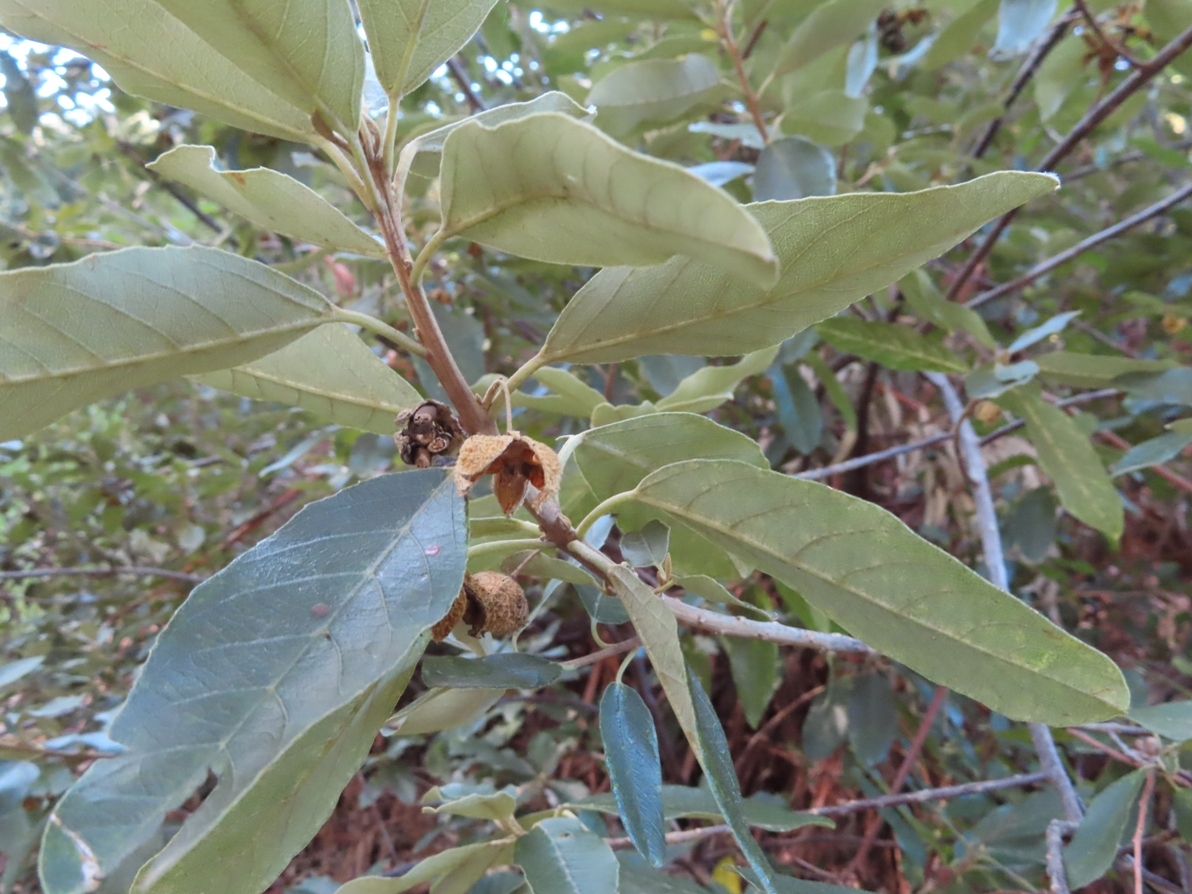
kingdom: Plantae
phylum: Tracheophyta
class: Magnoliopsida
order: Malpighiales
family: Achariaceae
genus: Kiggelaria
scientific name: Kiggelaria africana
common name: Wild peach
